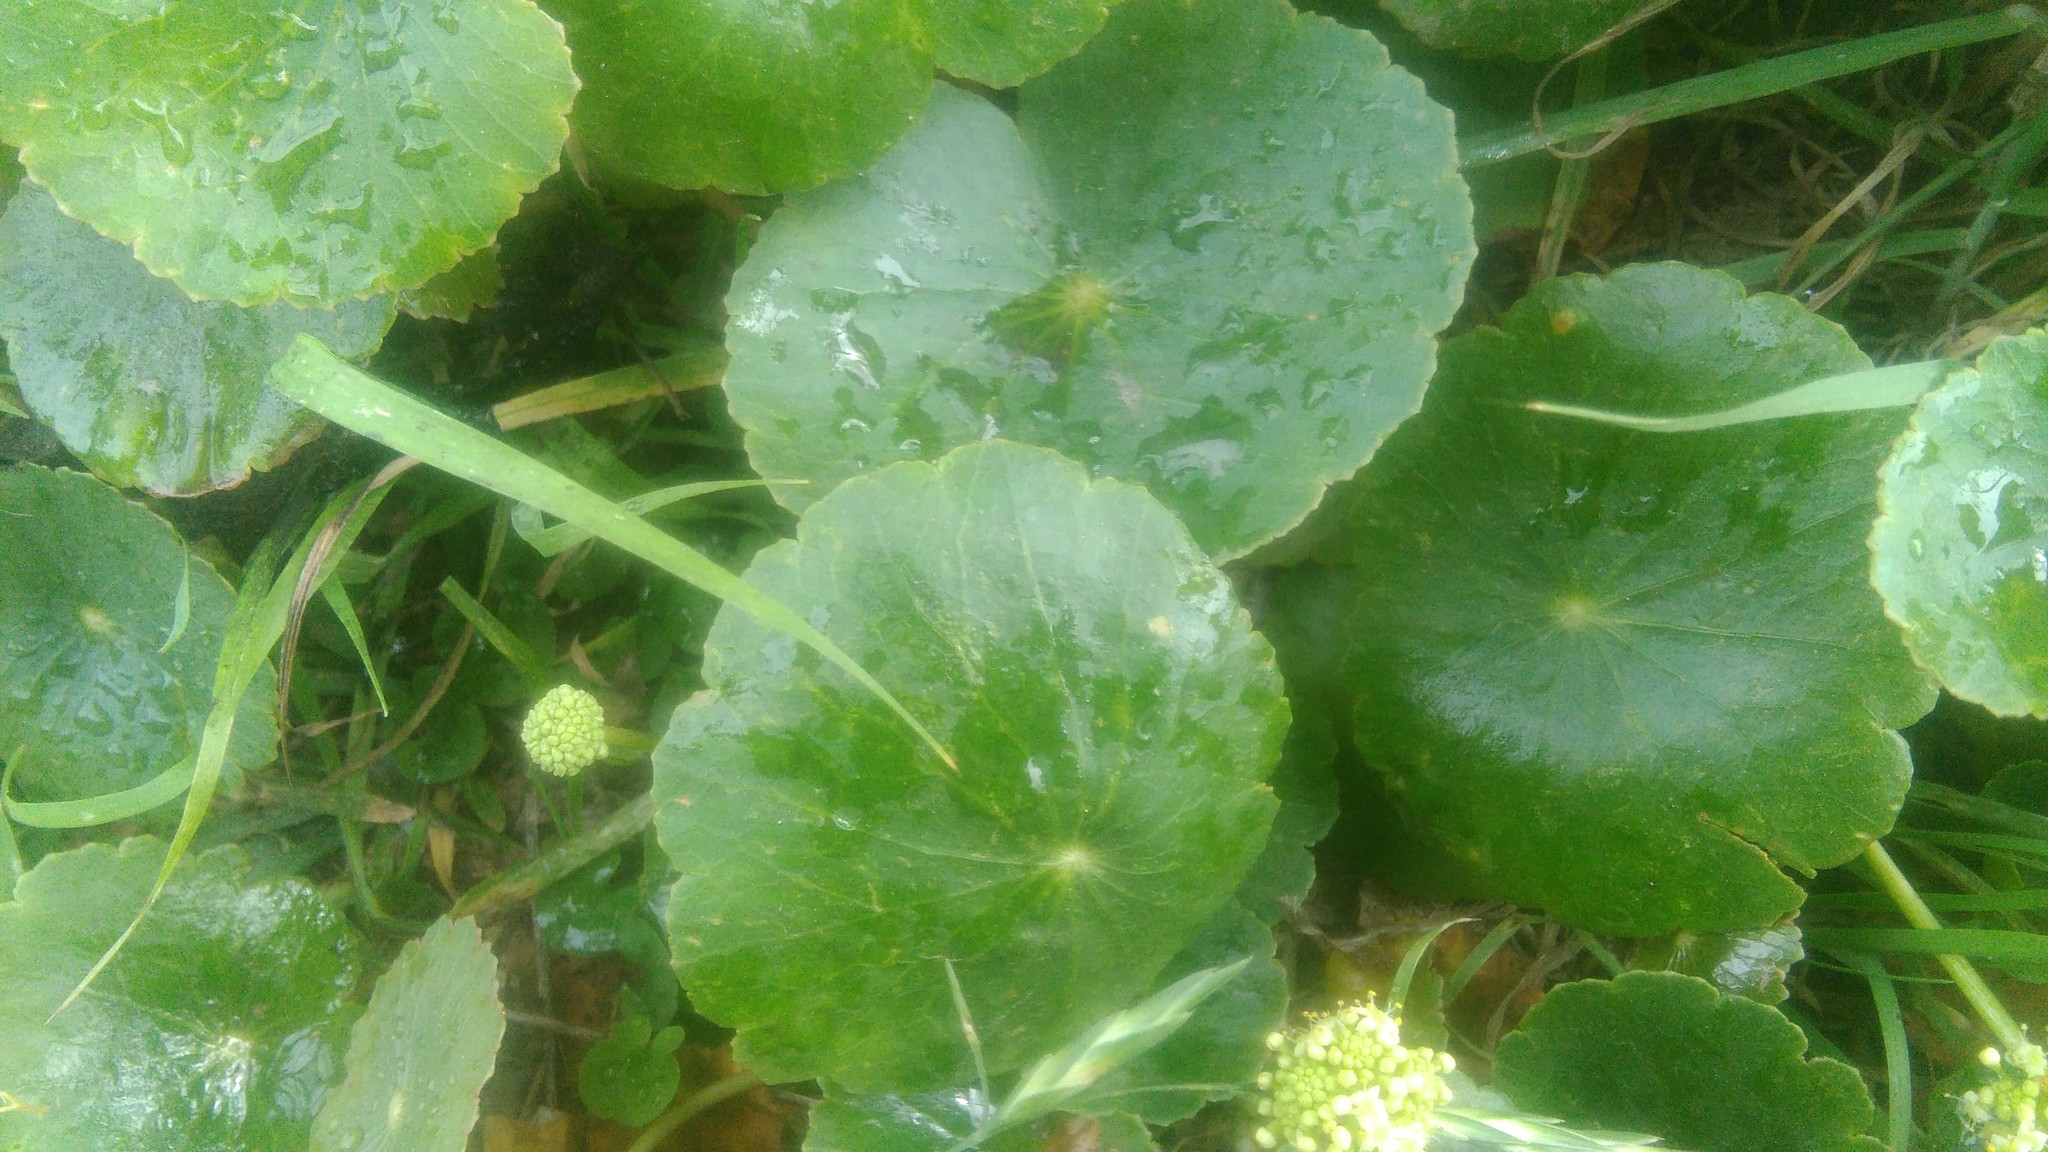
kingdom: Plantae
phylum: Tracheophyta
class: Magnoliopsida
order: Apiales
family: Araliaceae
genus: Hydrocotyle
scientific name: Hydrocotyle bonariensis
